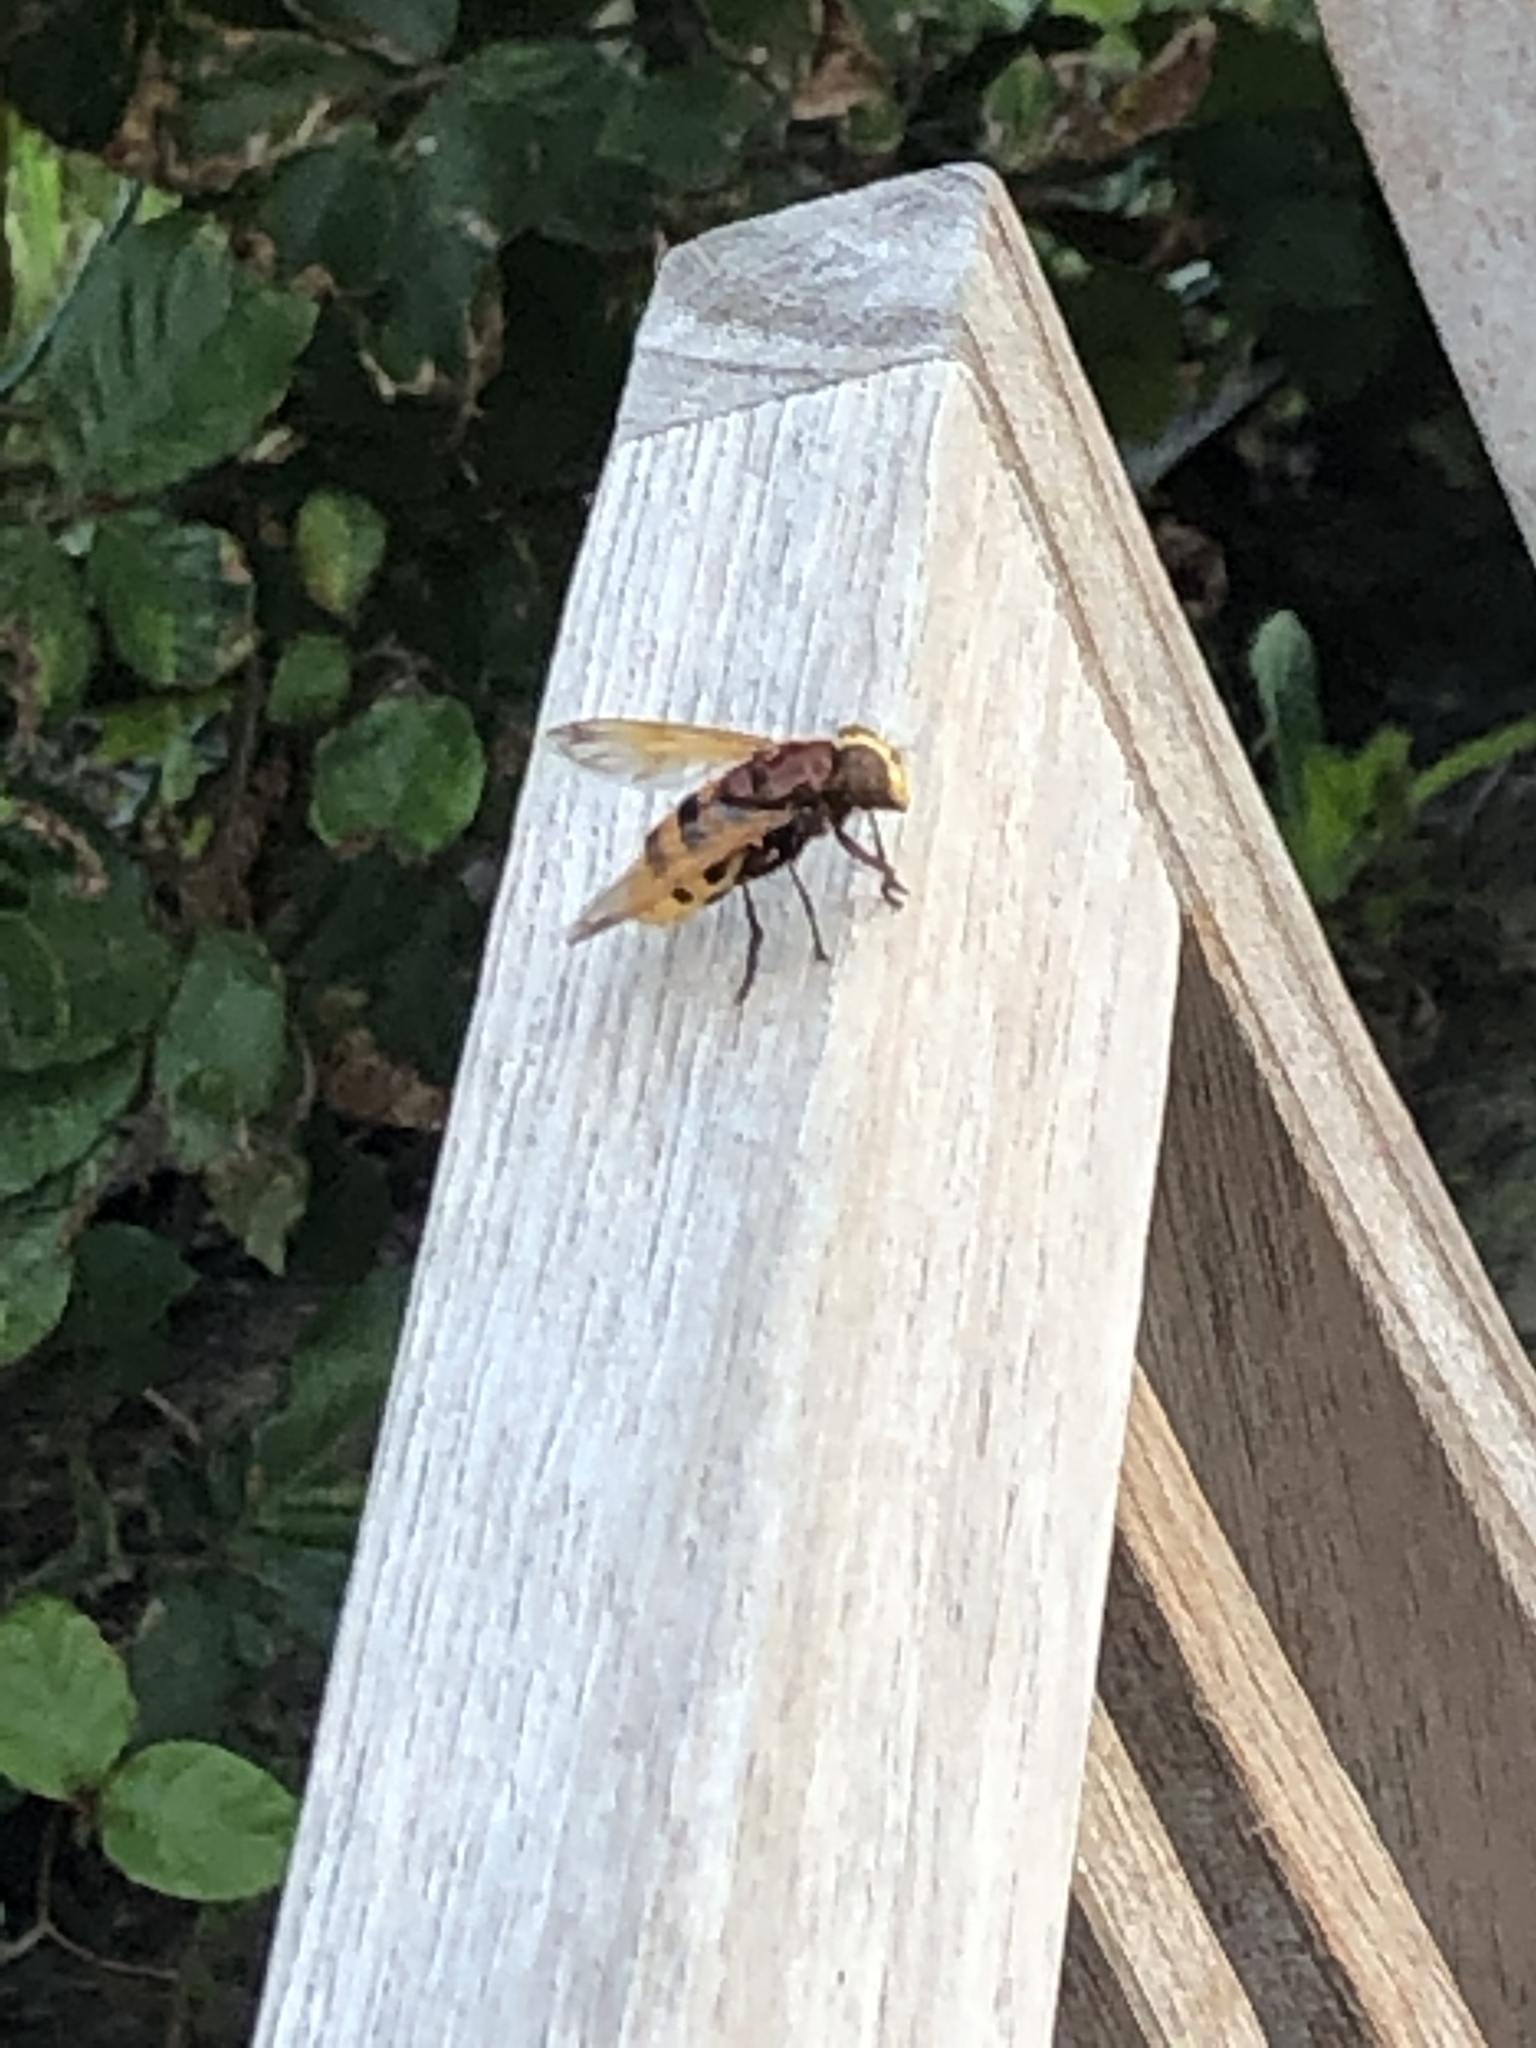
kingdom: Animalia
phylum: Arthropoda
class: Insecta
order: Diptera
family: Syrphidae
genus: Volucella
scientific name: Volucella zonaria
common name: Hornet hoverfly
